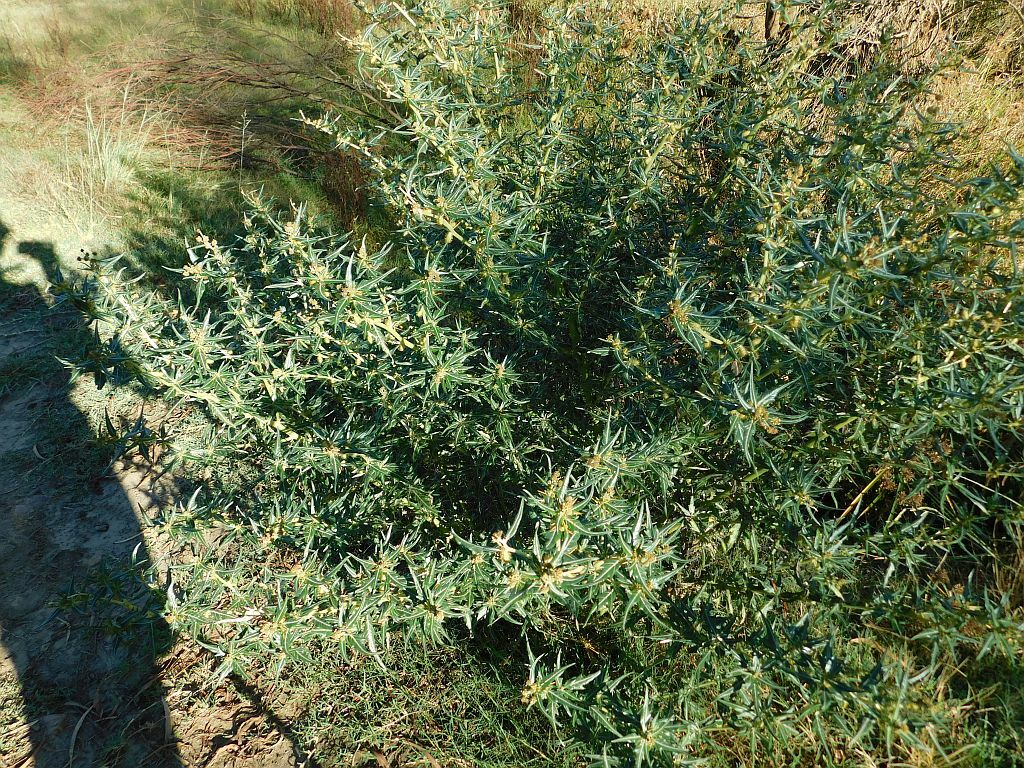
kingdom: Plantae
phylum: Tracheophyta
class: Magnoliopsida
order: Asterales
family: Asteraceae
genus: Xanthium
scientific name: Xanthium spinosum
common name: Spiny cocklebur
